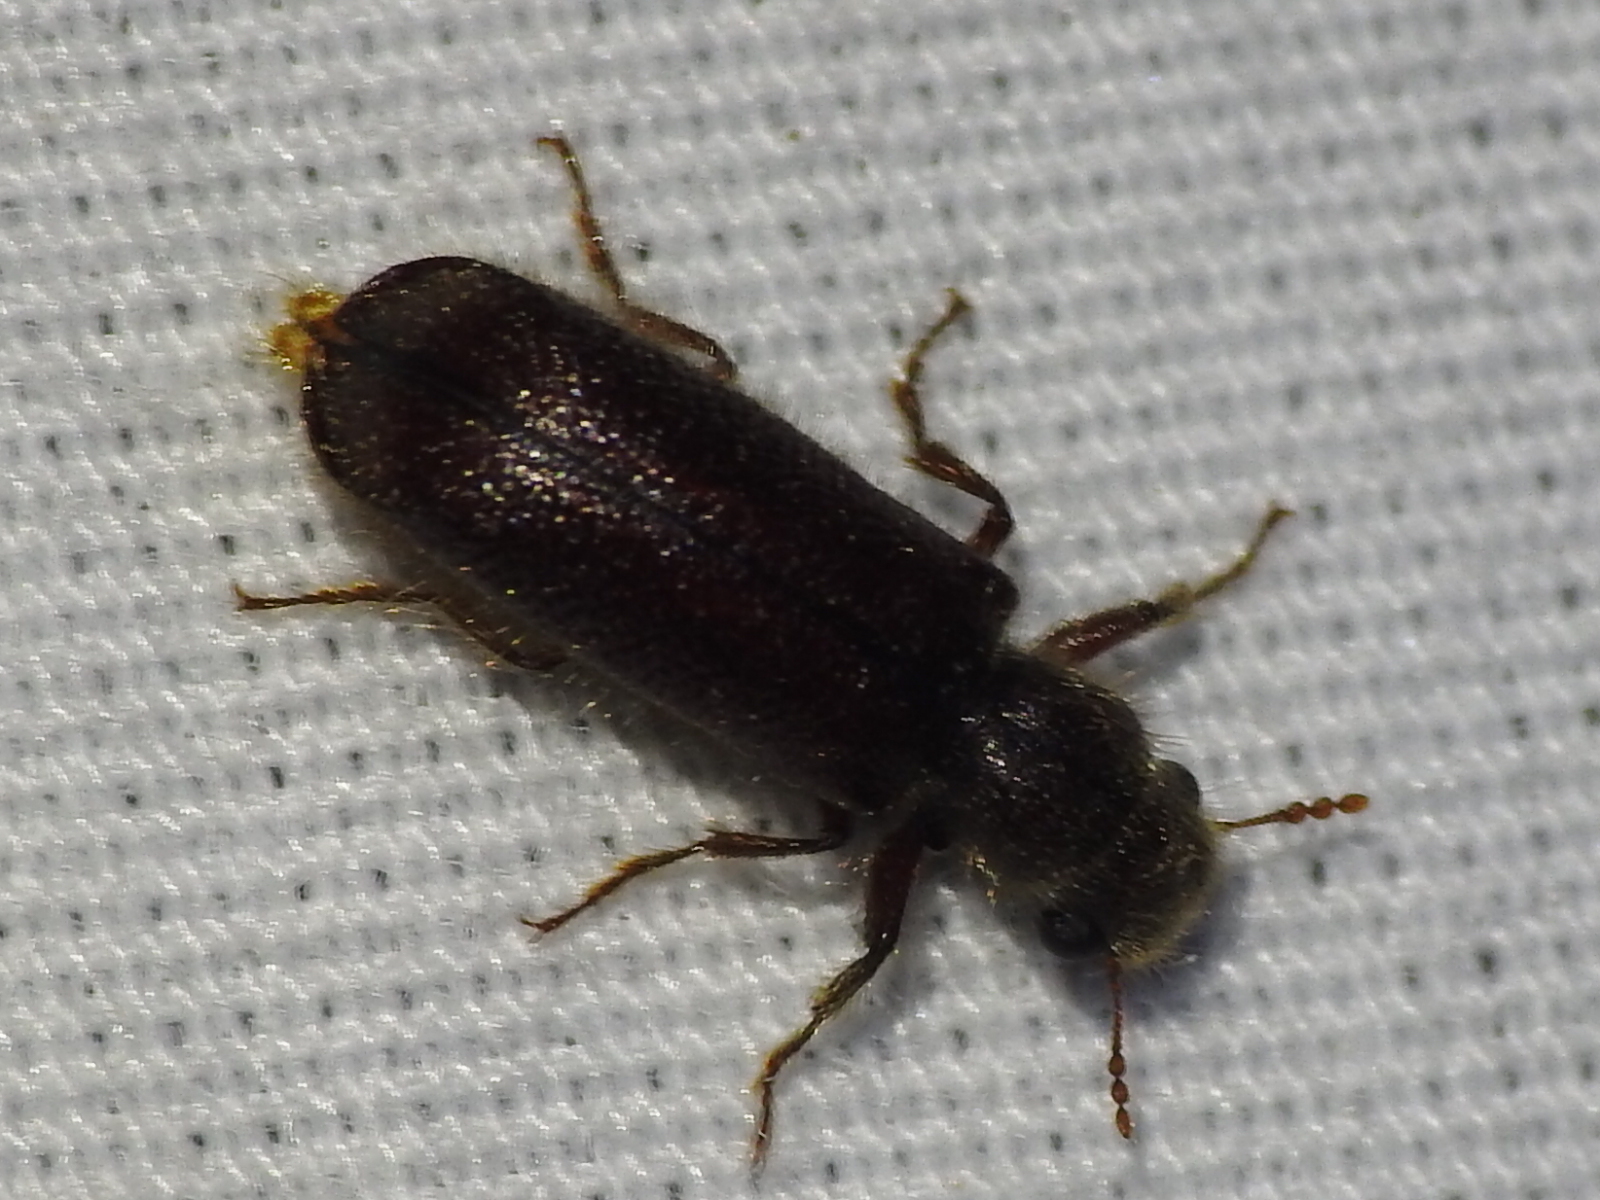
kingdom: Animalia
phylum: Arthropoda
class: Insecta
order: Coleoptera
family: Bostrichidae
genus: Melalgus
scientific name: Melalgus plicatus
